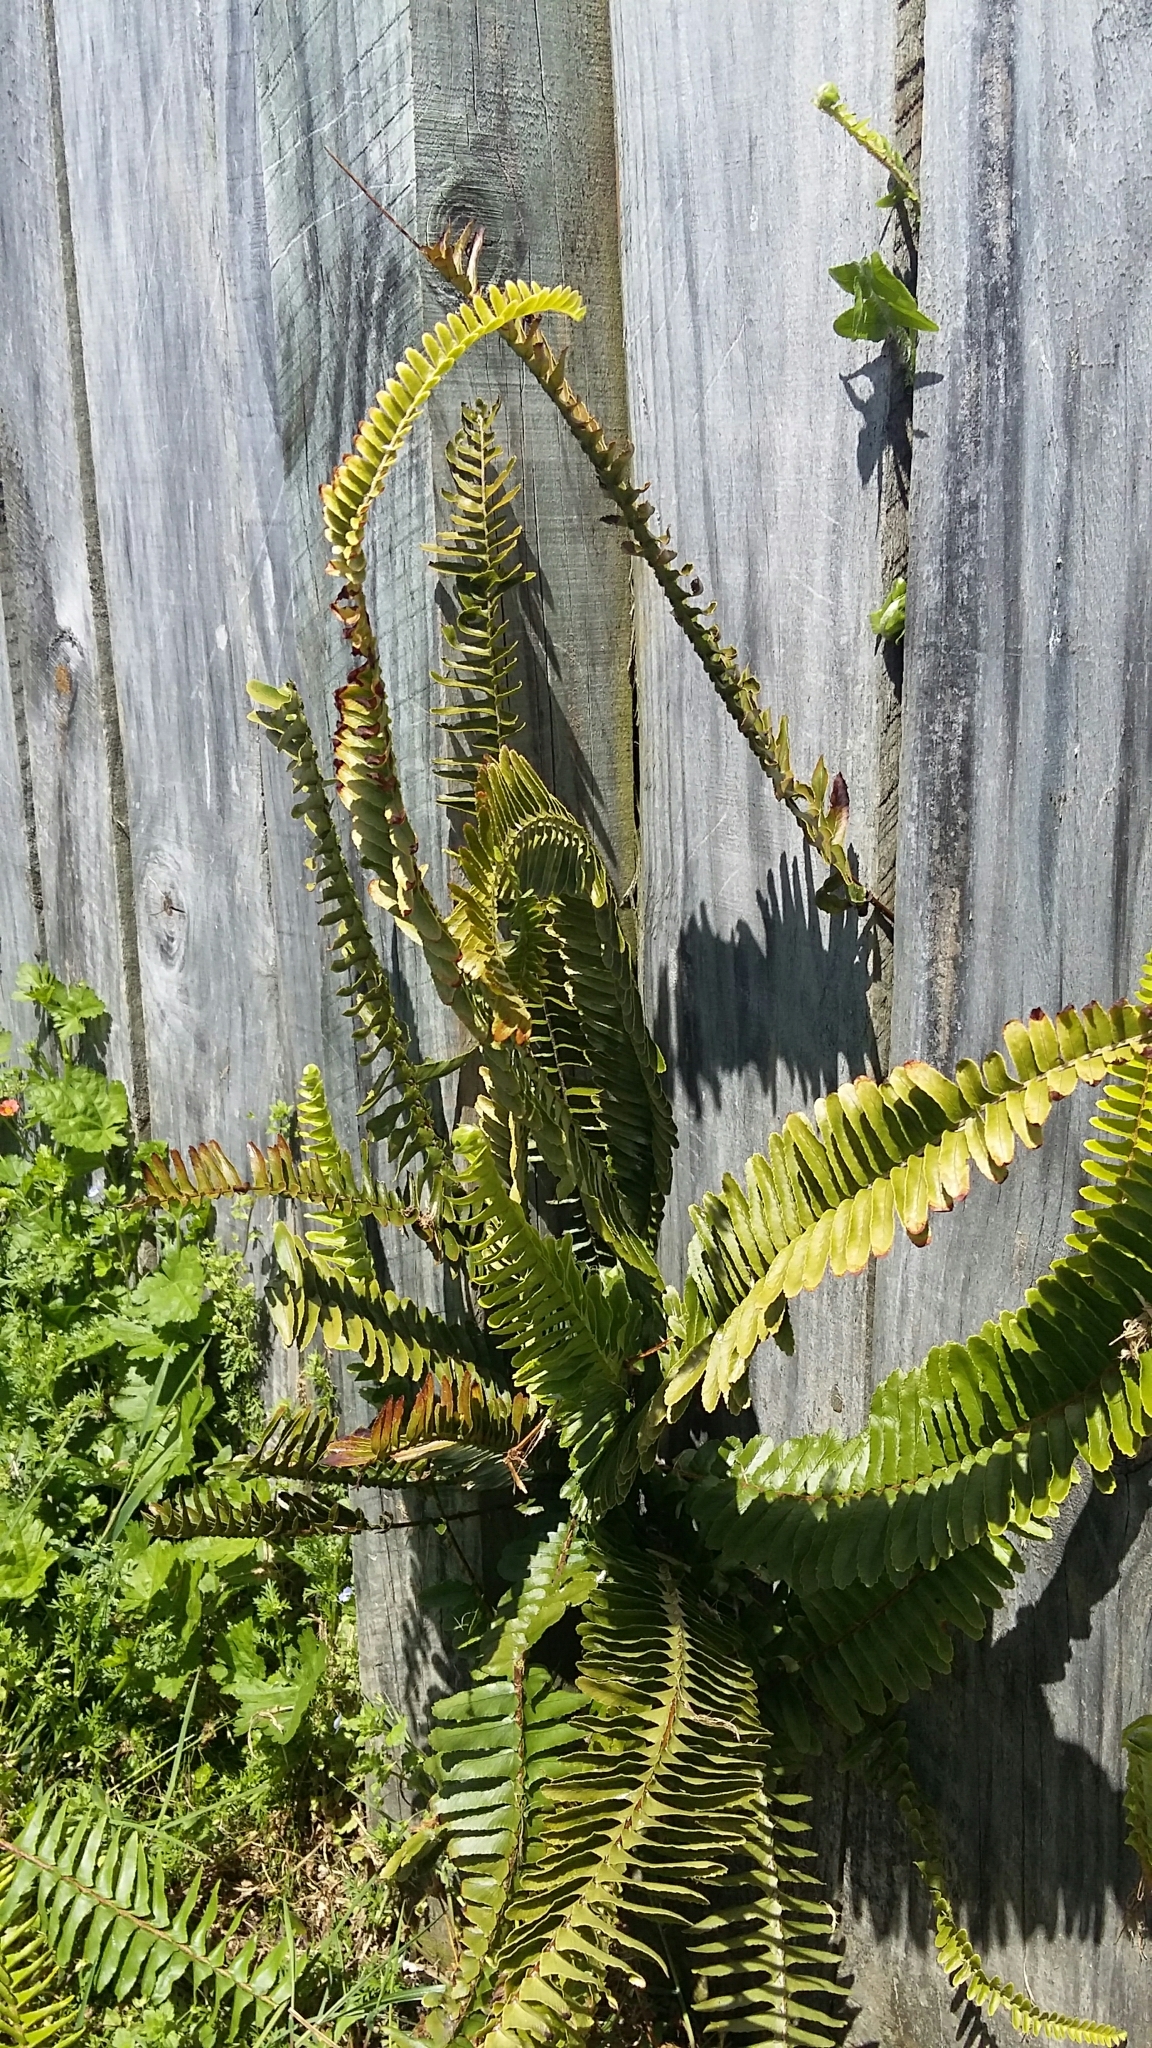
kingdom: Plantae
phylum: Tracheophyta
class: Polypodiopsida
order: Polypodiales
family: Nephrolepidaceae
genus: Nephrolepis
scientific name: Nephrolepis cordifolia
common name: Narrow swordfern
